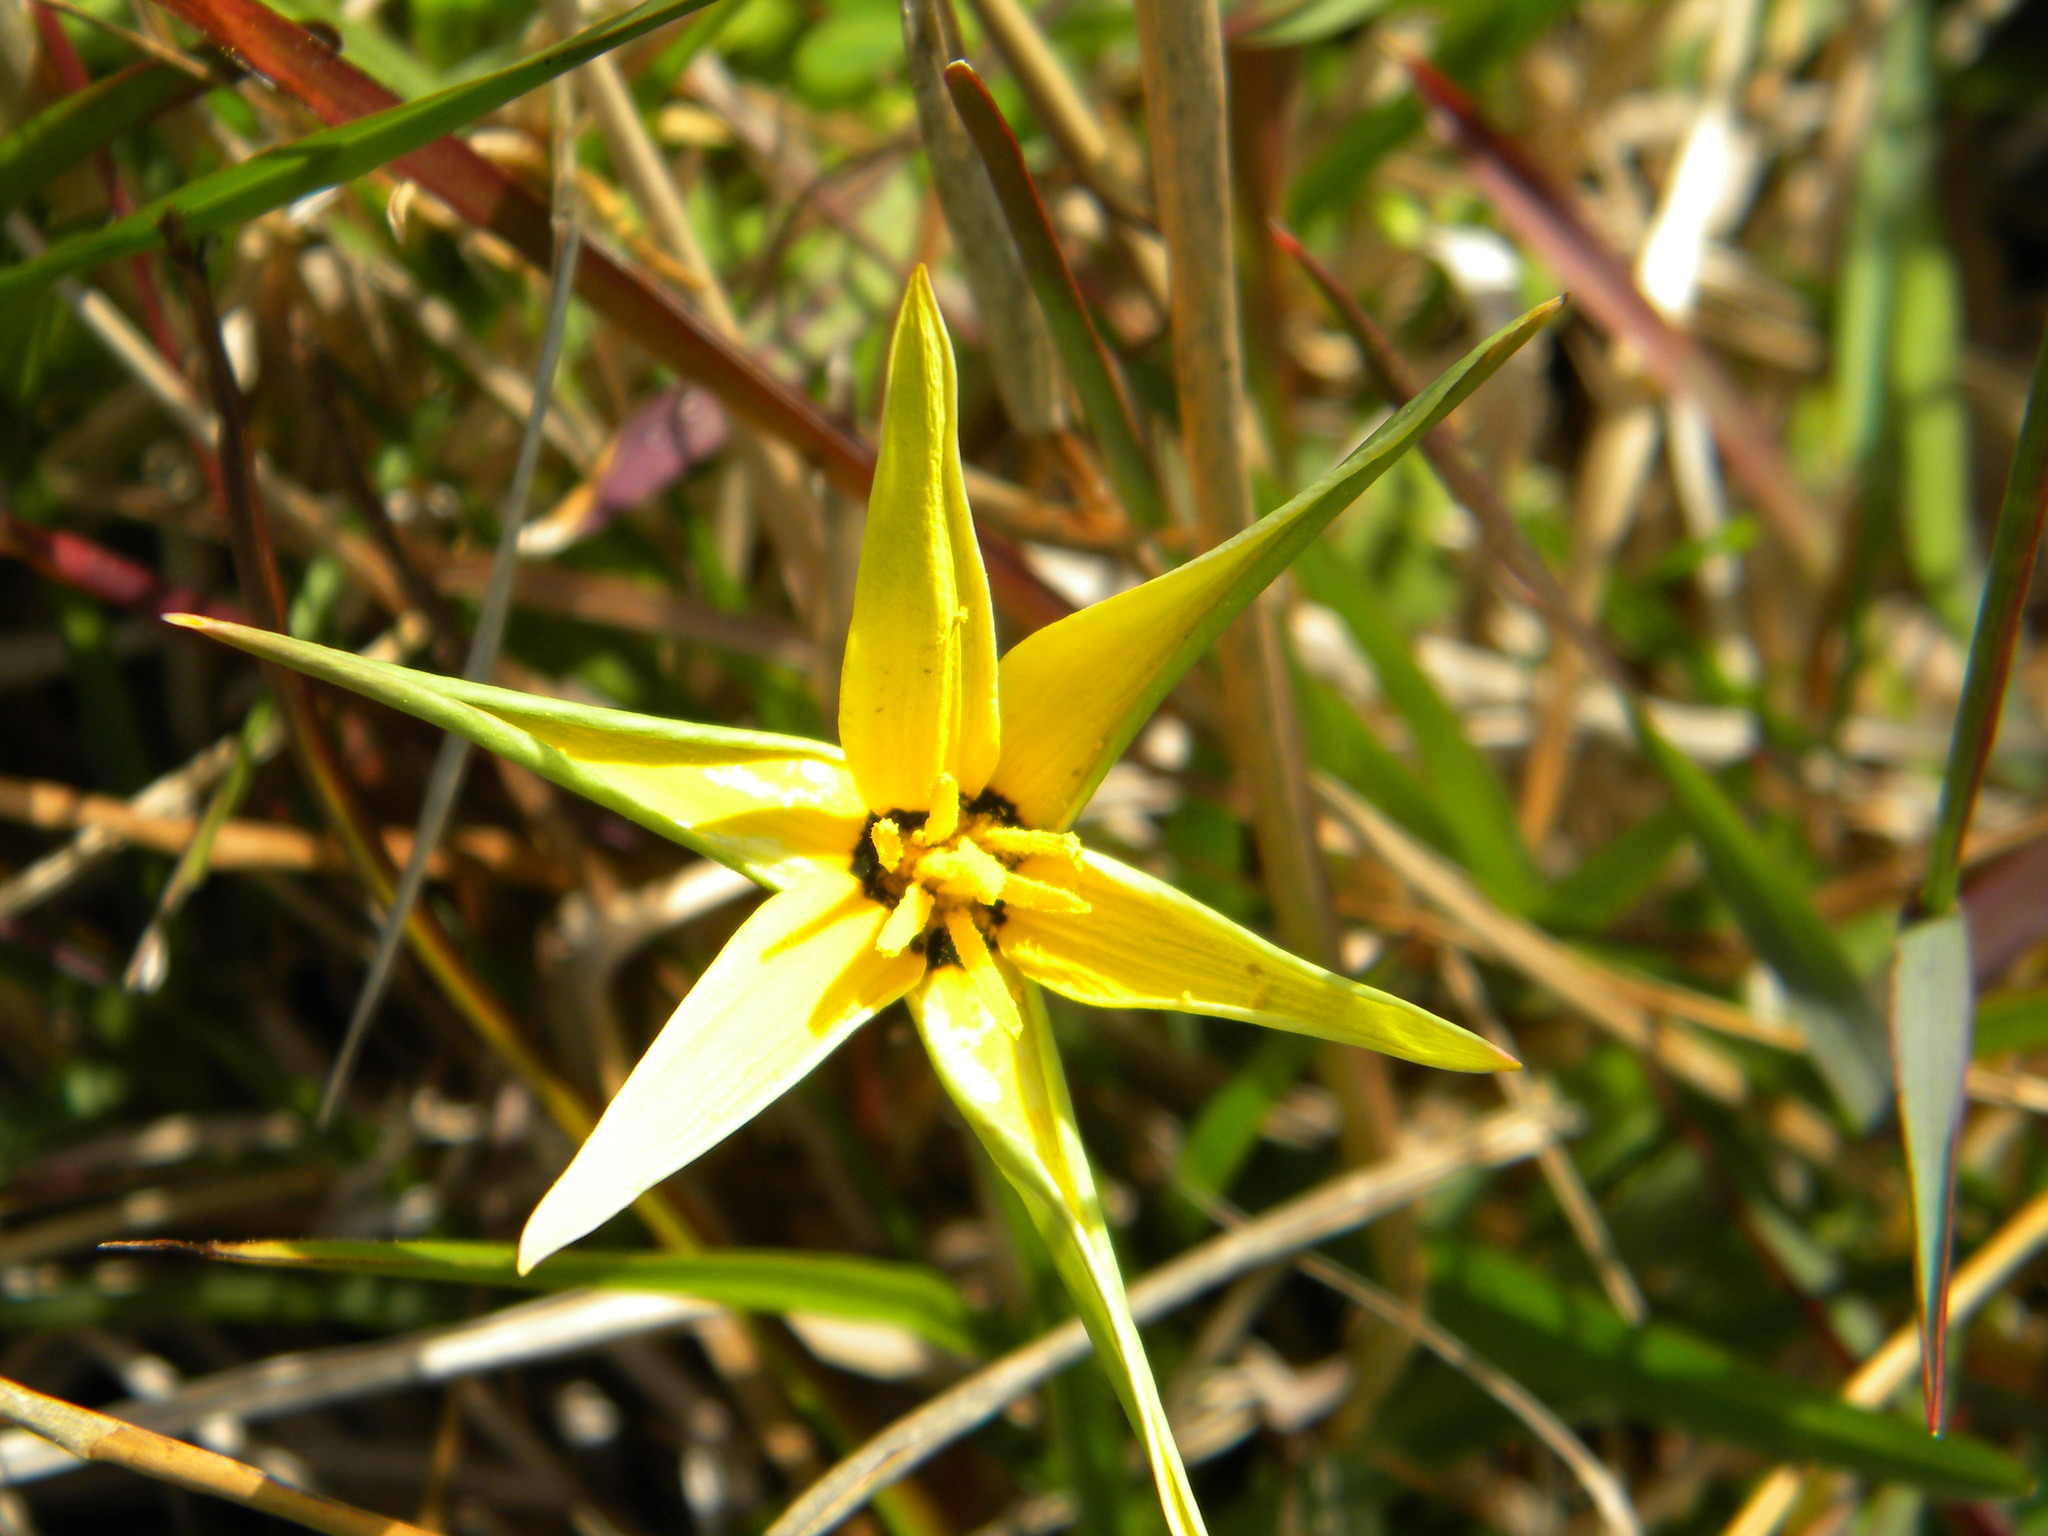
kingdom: Plantae
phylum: Tracheophyta
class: Liliopsida
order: Asparagales
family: Hypoxidaceae
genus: Pauridia
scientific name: Pauridia capensis
